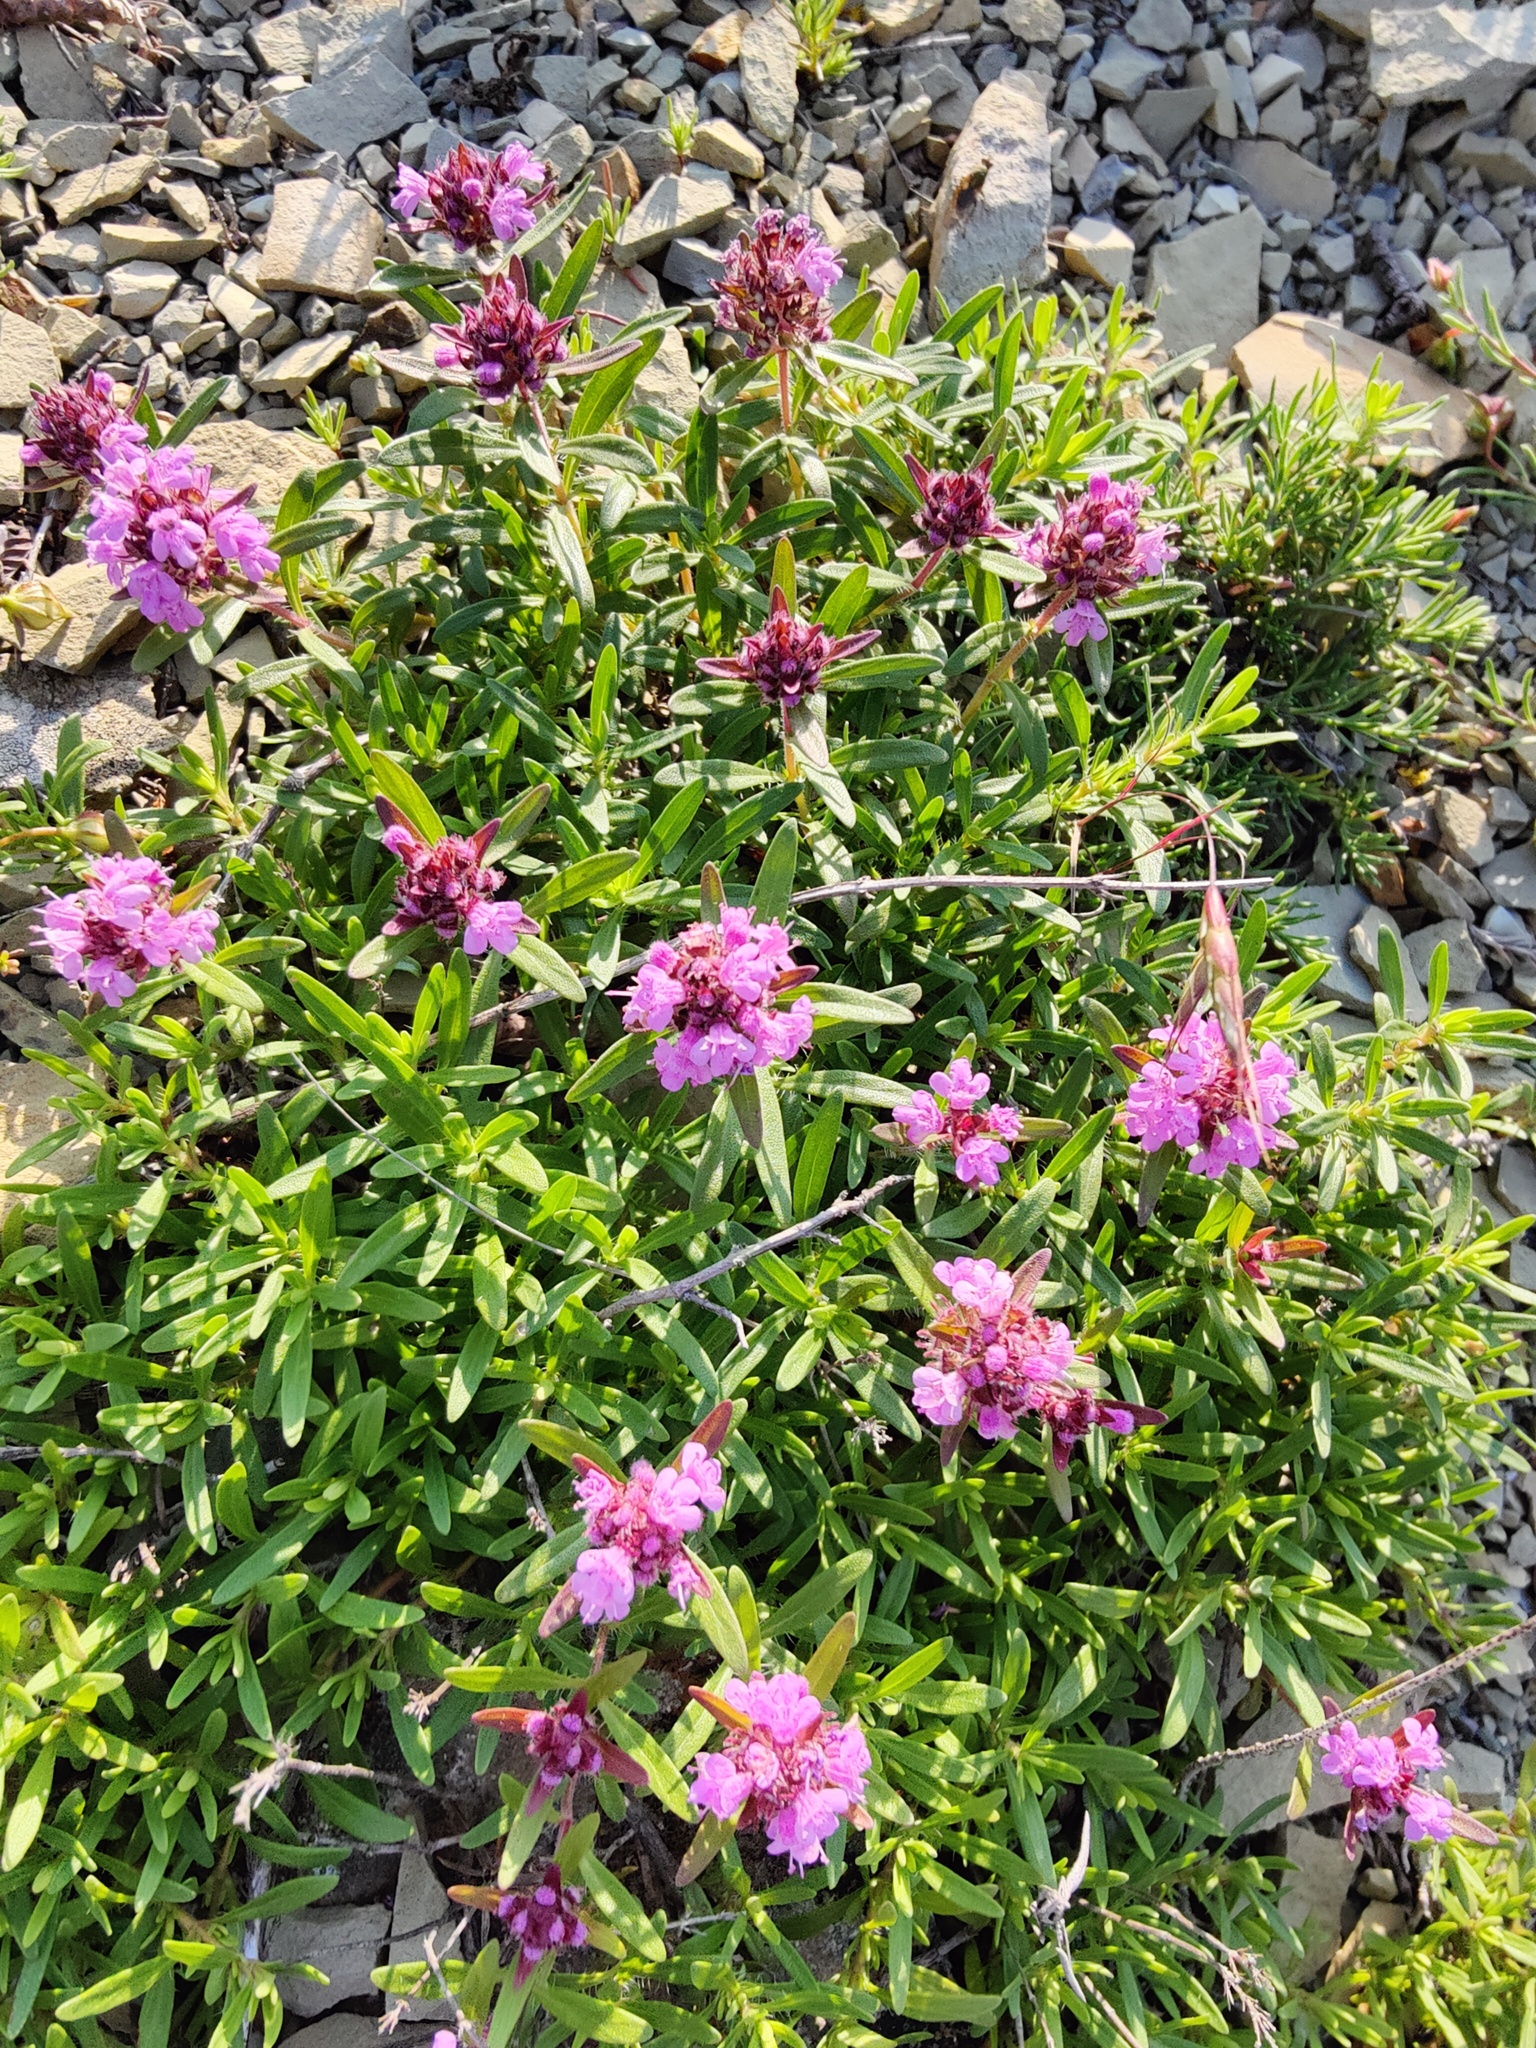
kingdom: Plantae
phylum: Tracheophyta
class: Magnoliopsida
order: Lamiales
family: Lamiaceae
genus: Thymus
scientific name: Thymus dimorphus
